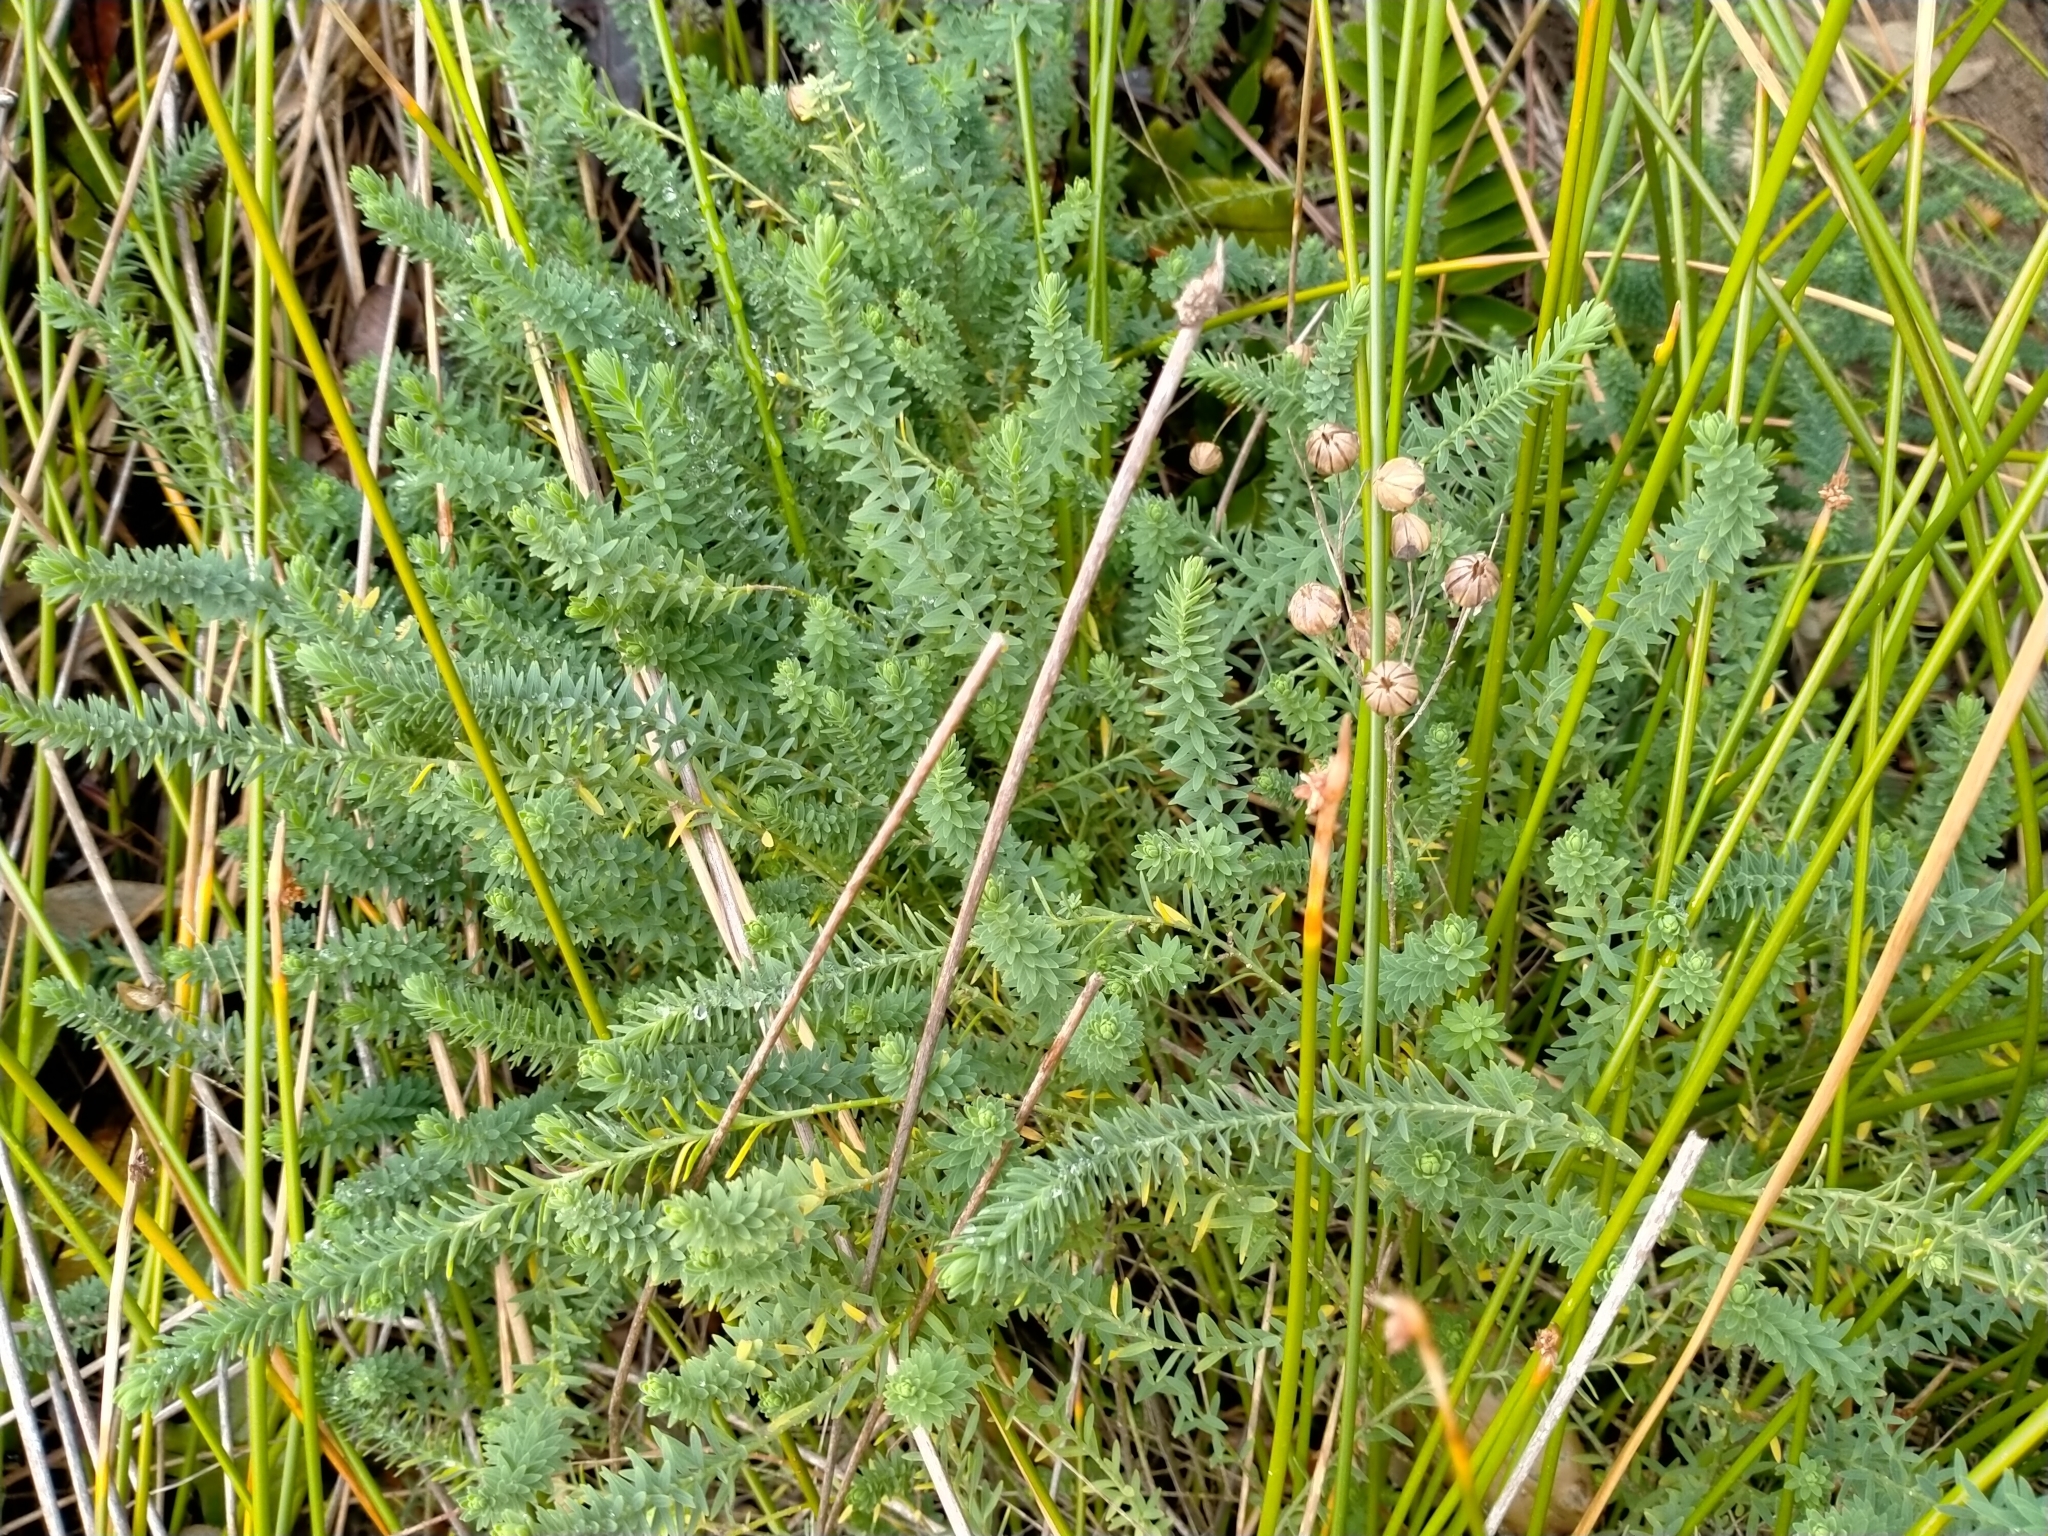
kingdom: Plantae
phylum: Tracheophyta
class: Magnoliopsida
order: Malpighiales
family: Linaceae
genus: Linum
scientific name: Linum monogynum
